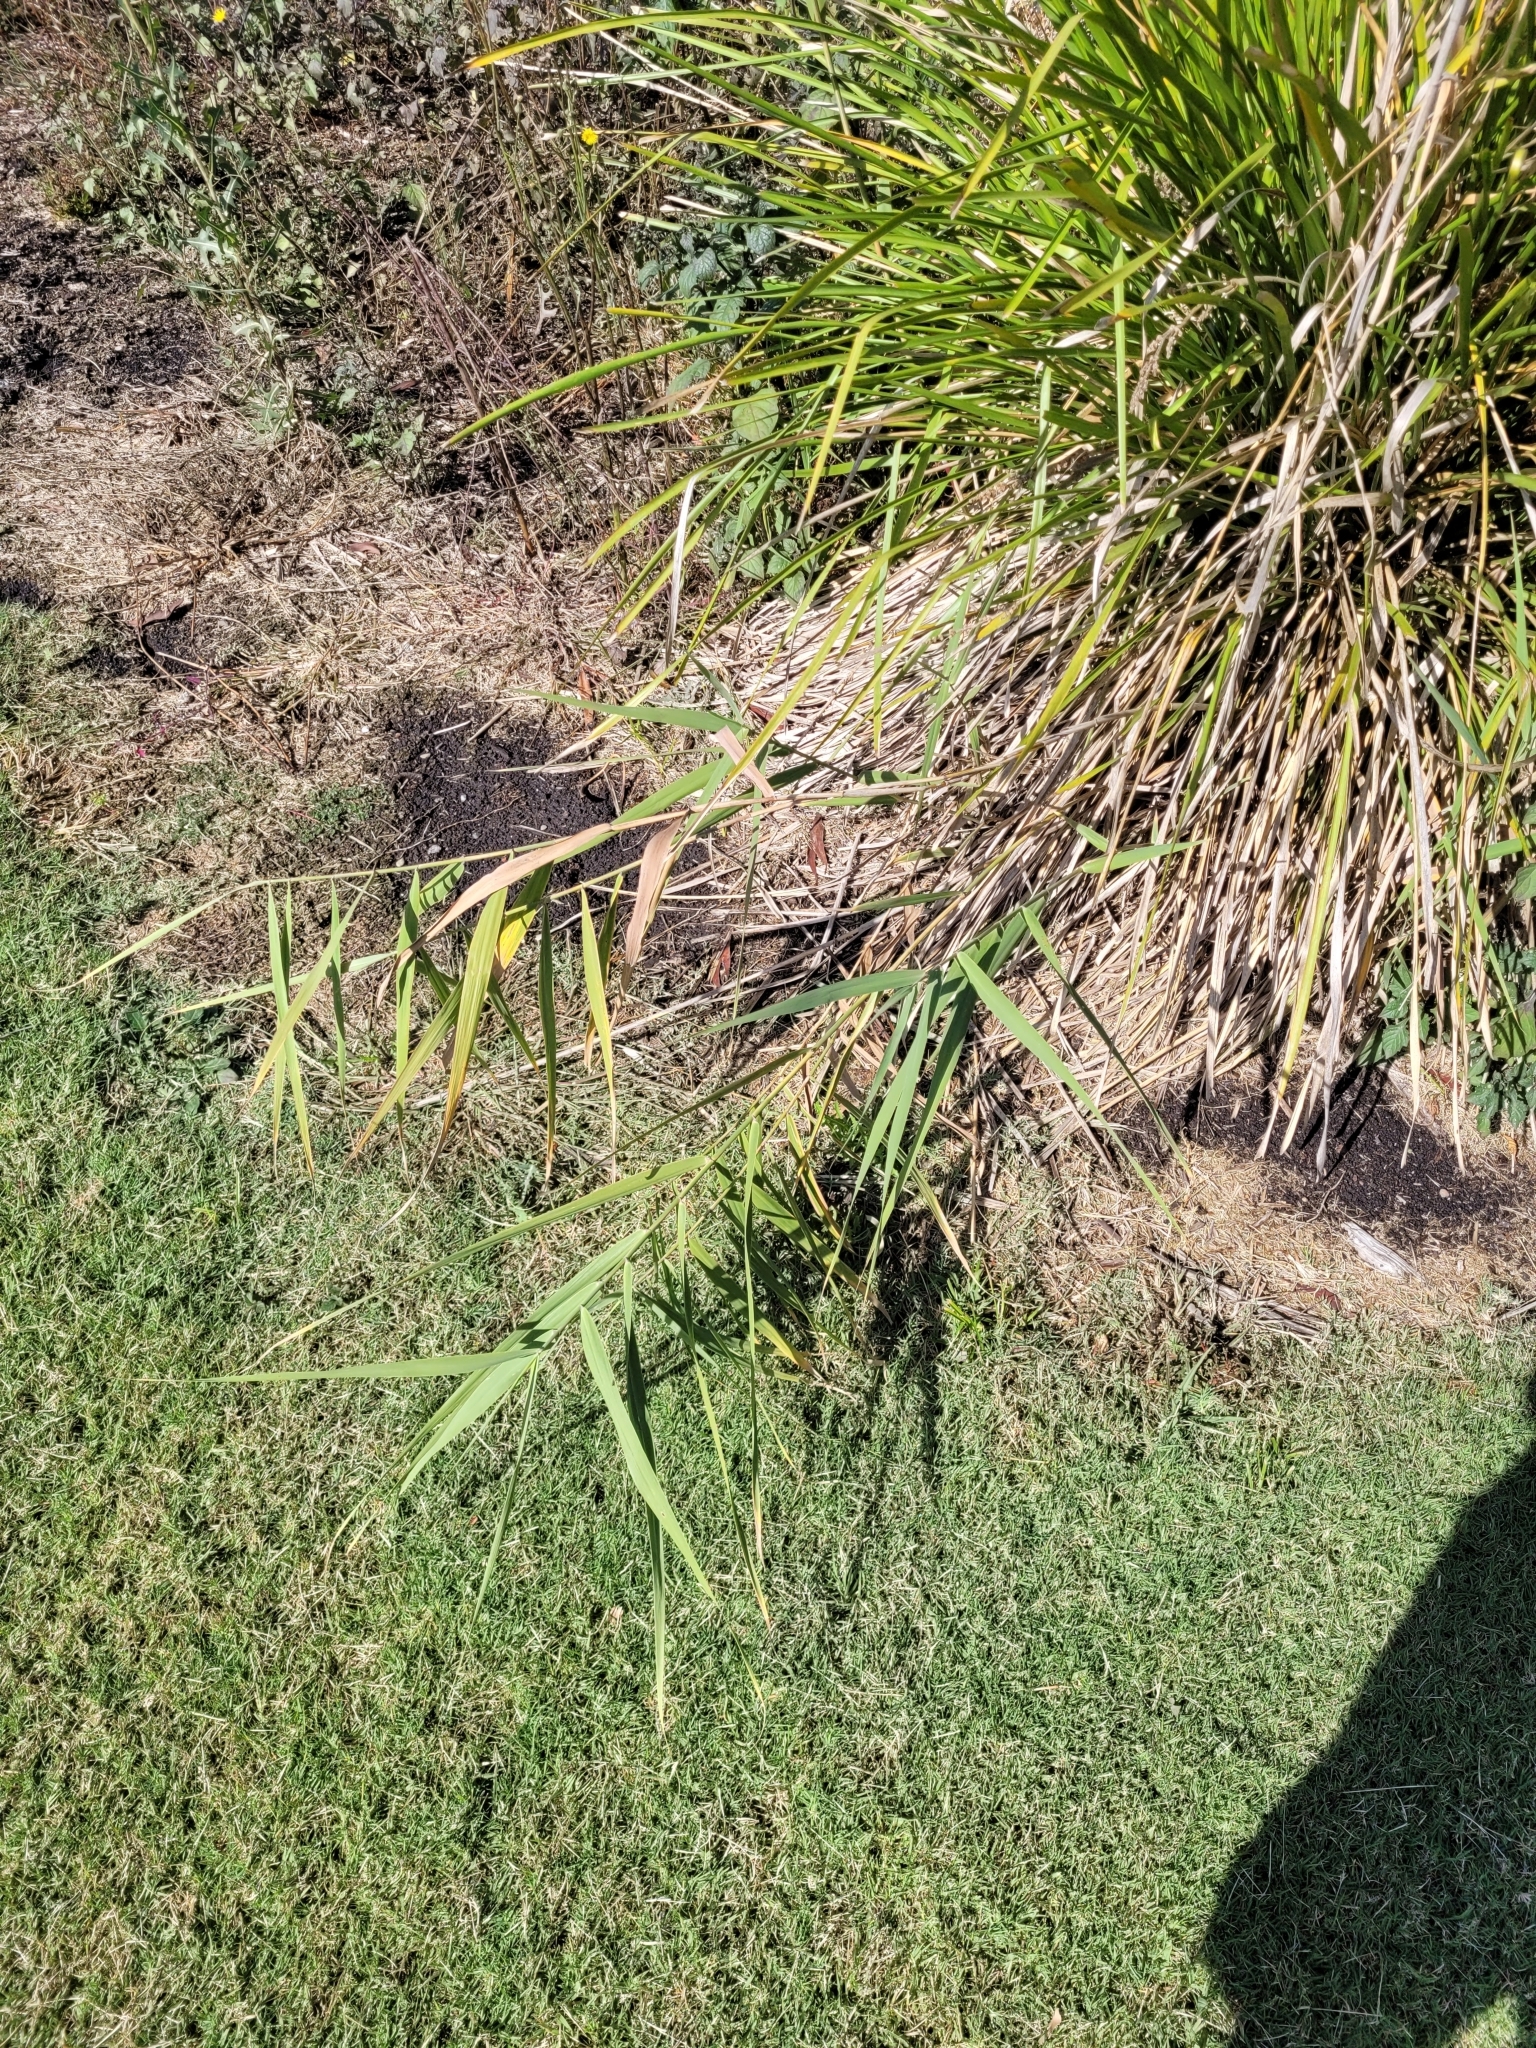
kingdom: Plantae
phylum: Tracheophyta
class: Liliopsida
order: Poales
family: Poaceae
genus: Phragmites
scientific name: Phragmites australis
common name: Common reed
